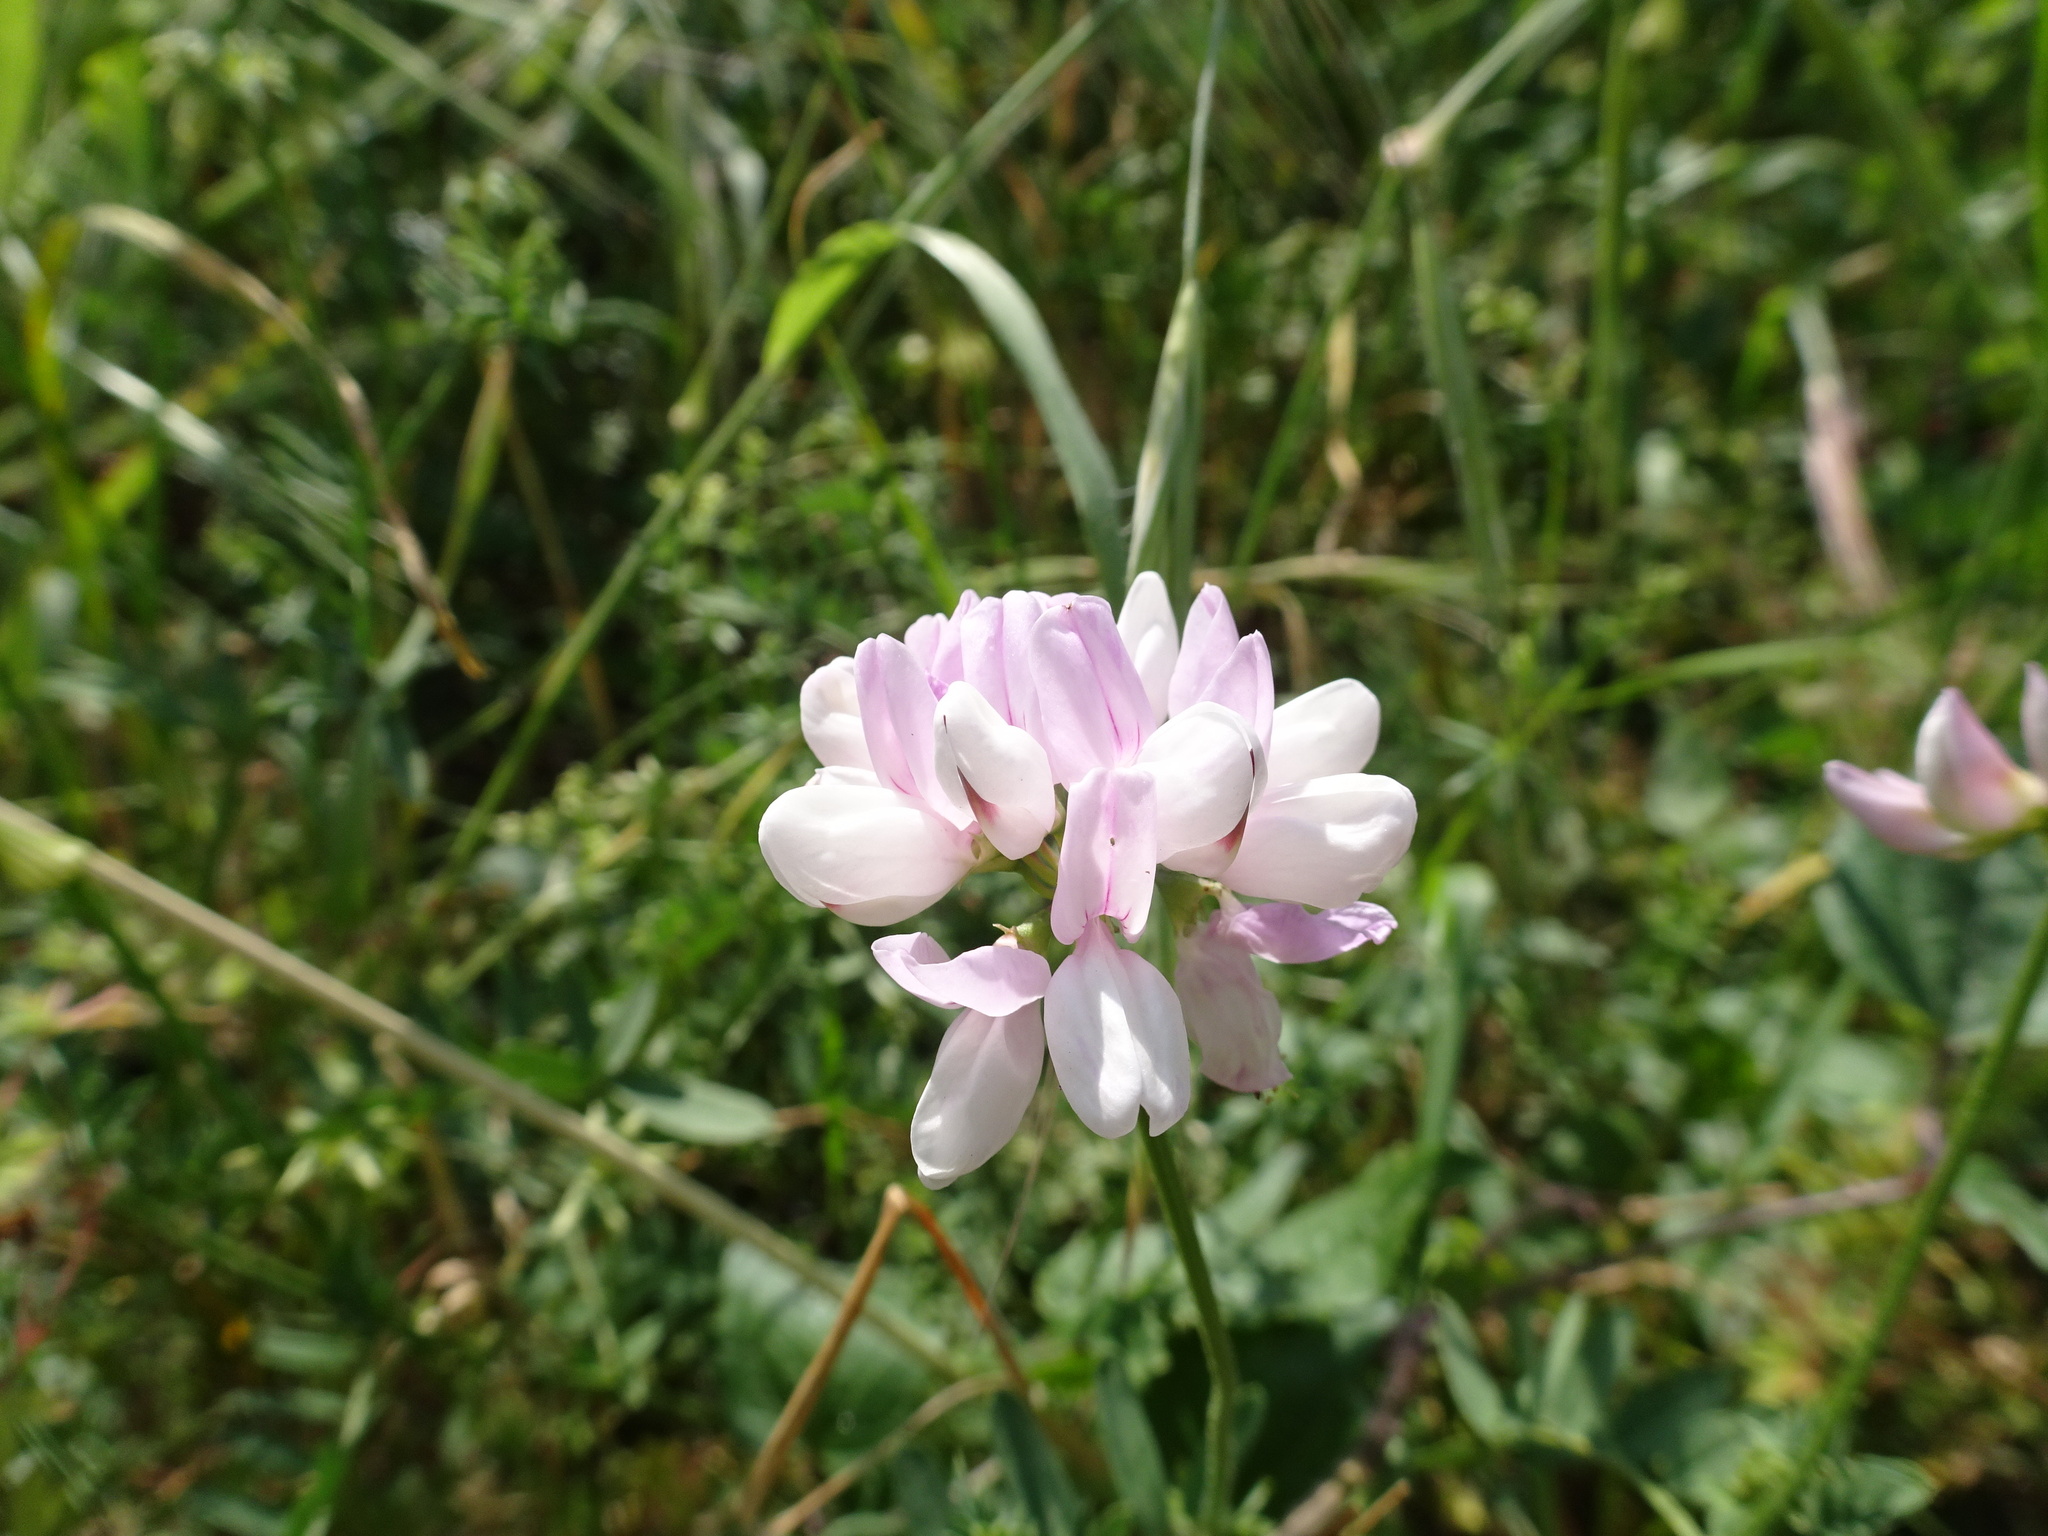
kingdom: Plantae
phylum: Tracheophyta
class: Magnoliopsida
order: Fabales
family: Fabaceae
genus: Coronilla
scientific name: Coronilla varia
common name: Crownvetch
